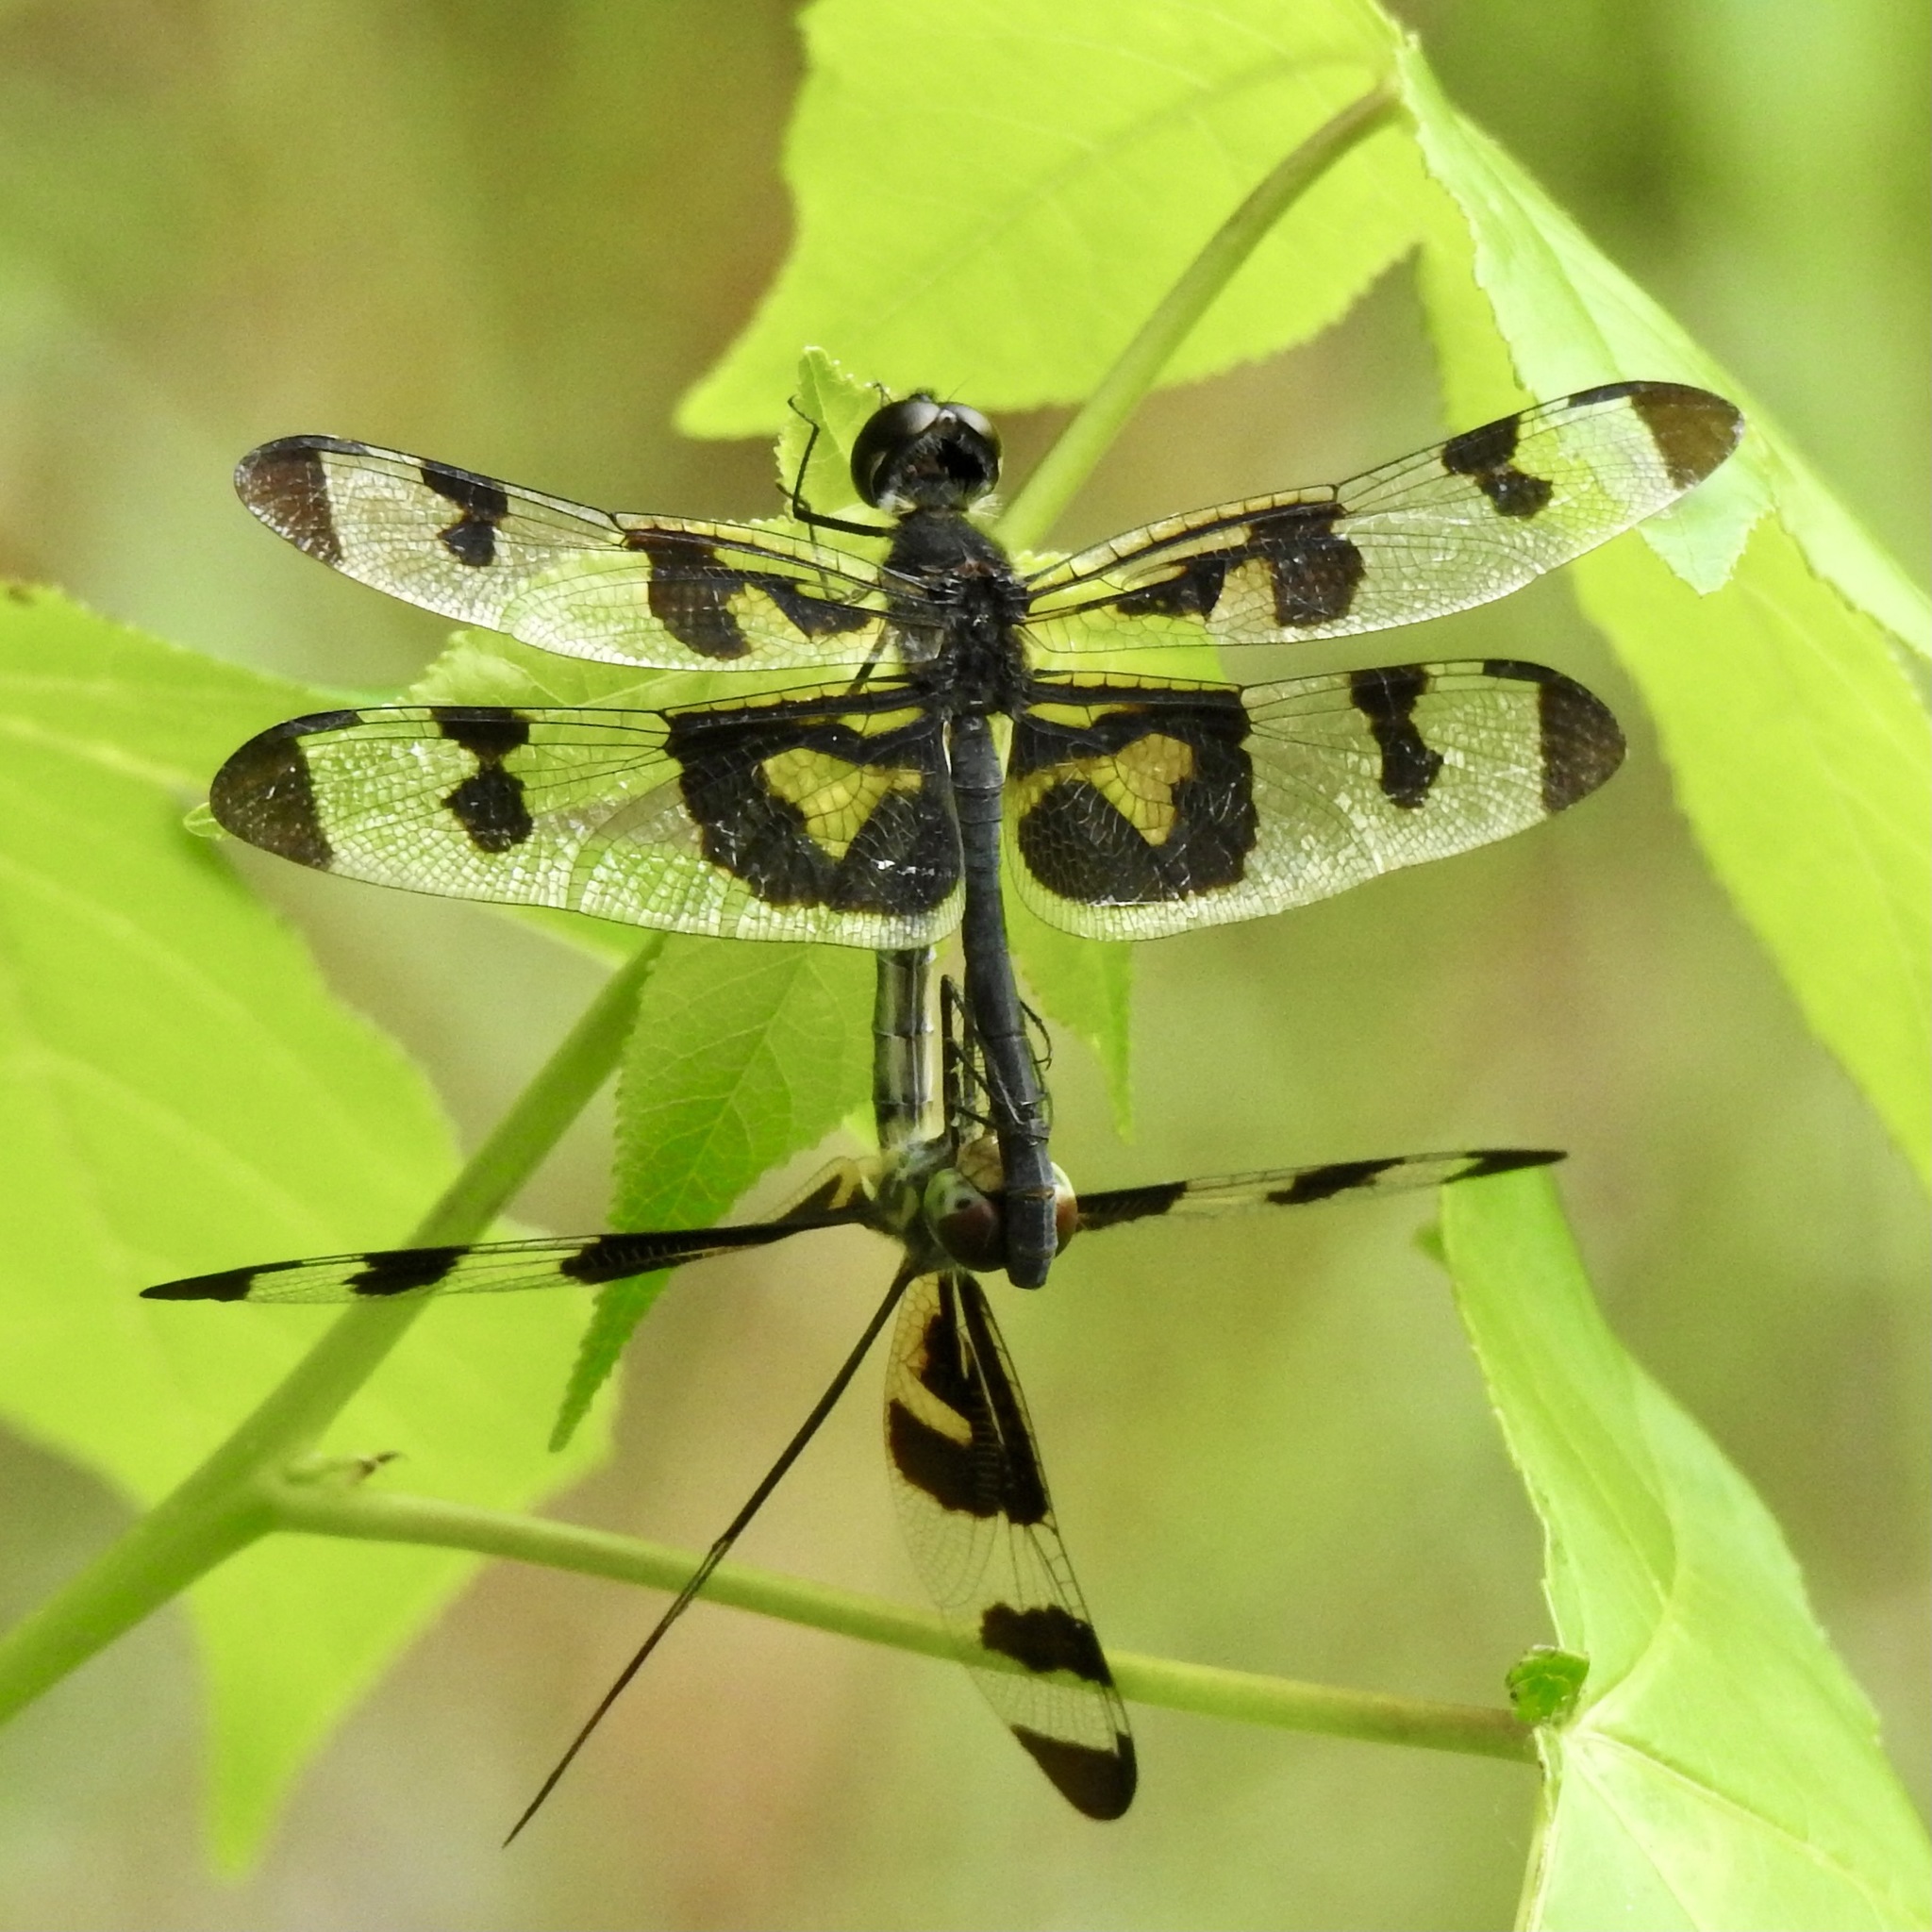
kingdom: Animalia
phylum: Arthropoda
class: Insecta
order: Odonata
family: Libellulidae
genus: Celithemis
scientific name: Celithemis fasciata
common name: Banded pennant
